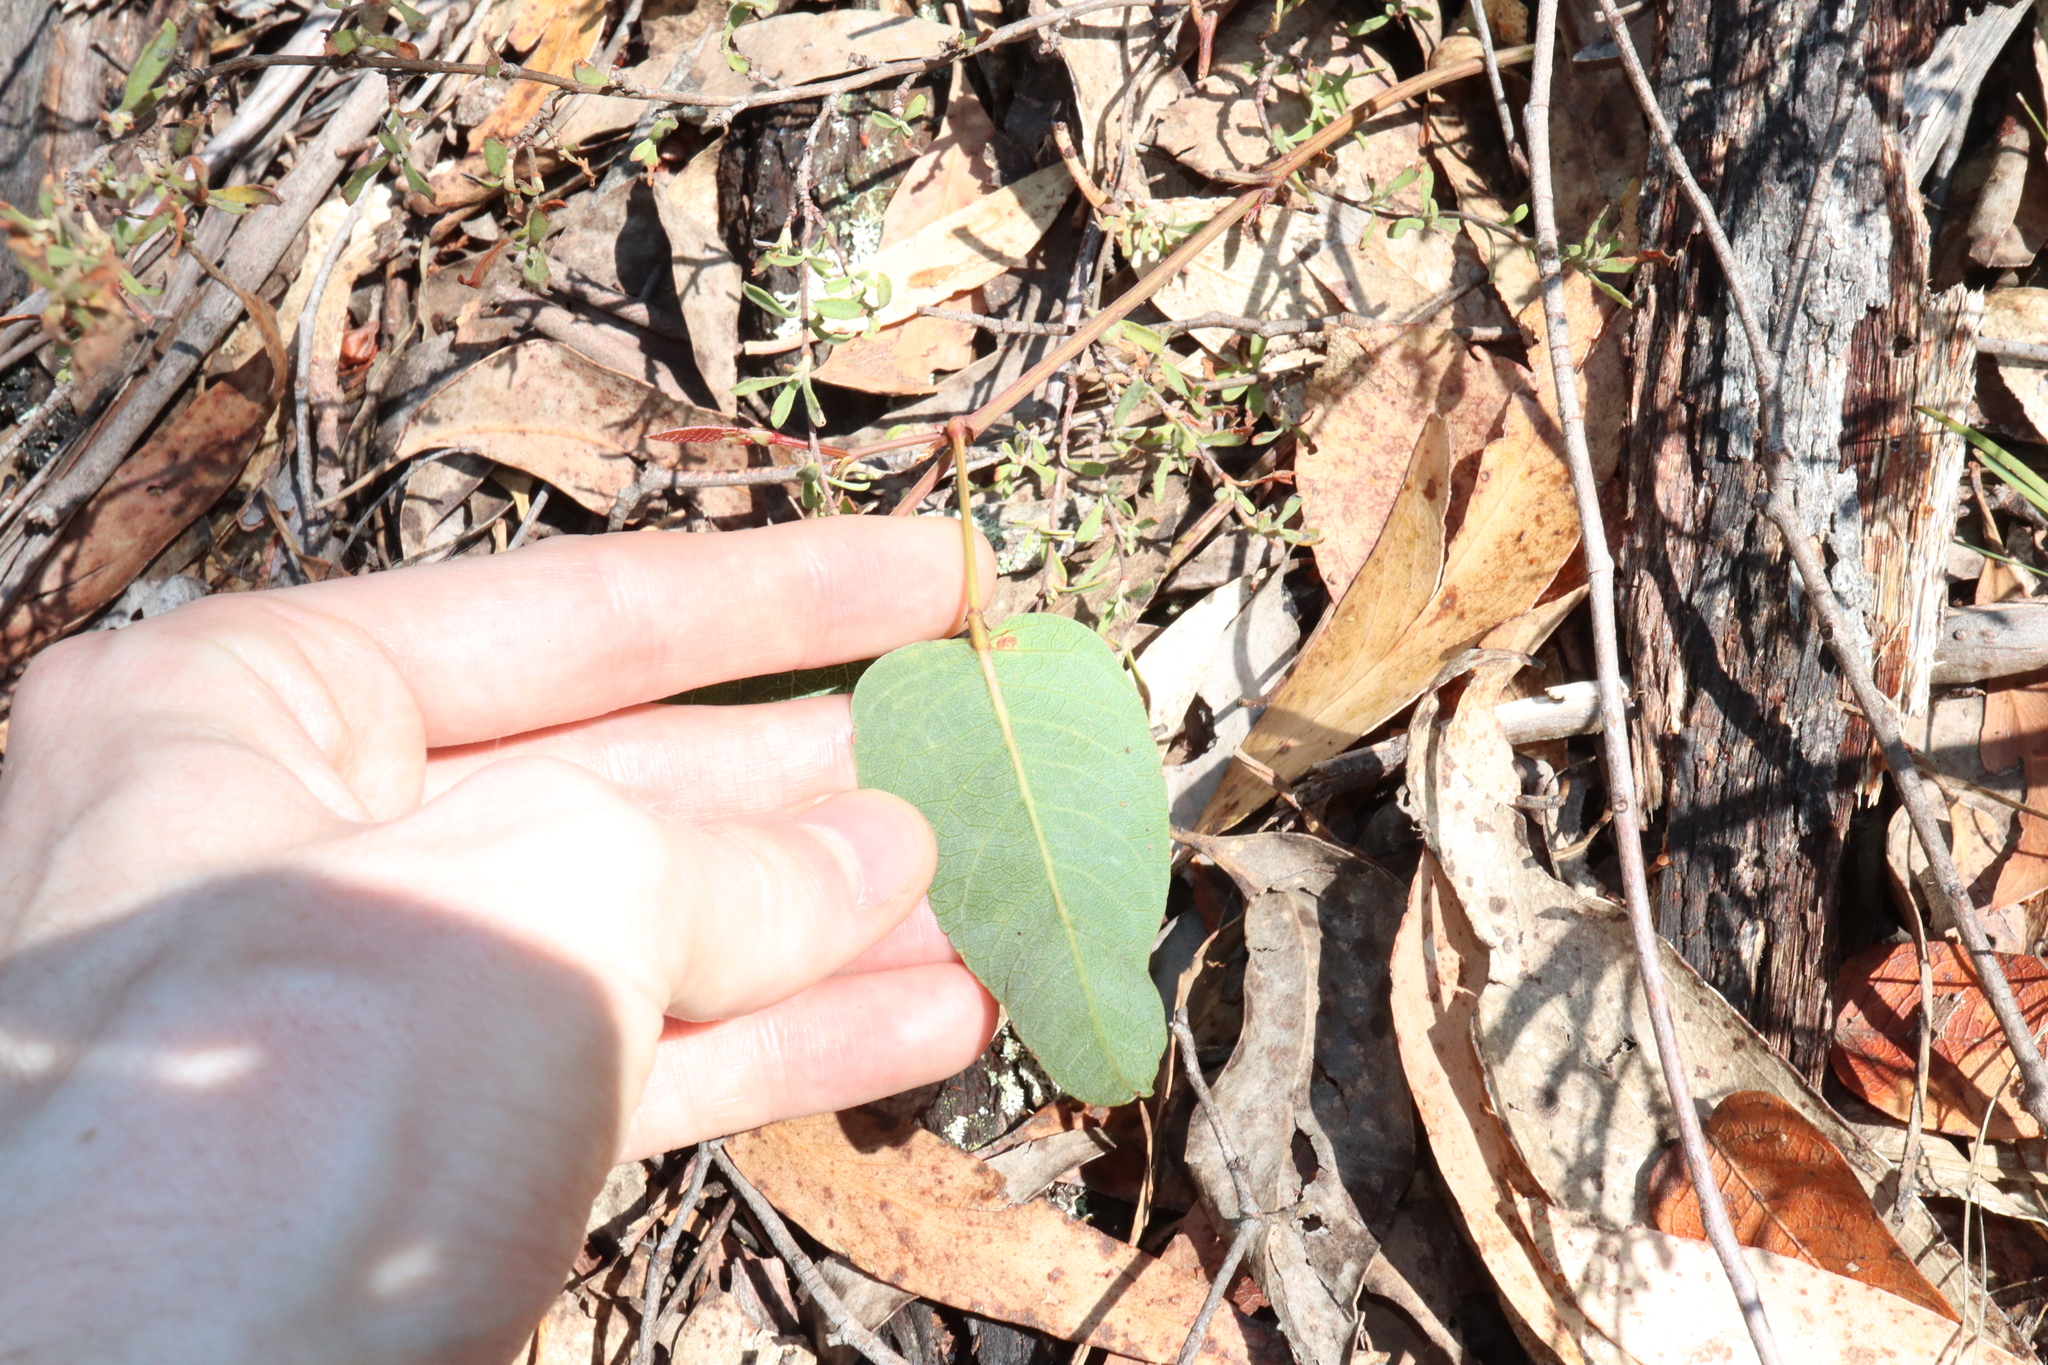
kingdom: Plantae
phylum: Tracheophyta
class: Magnoliopsida
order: Fabales
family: Fabaceae
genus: Hardenbergia
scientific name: Hardenbergia violacea
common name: Coral-pea
